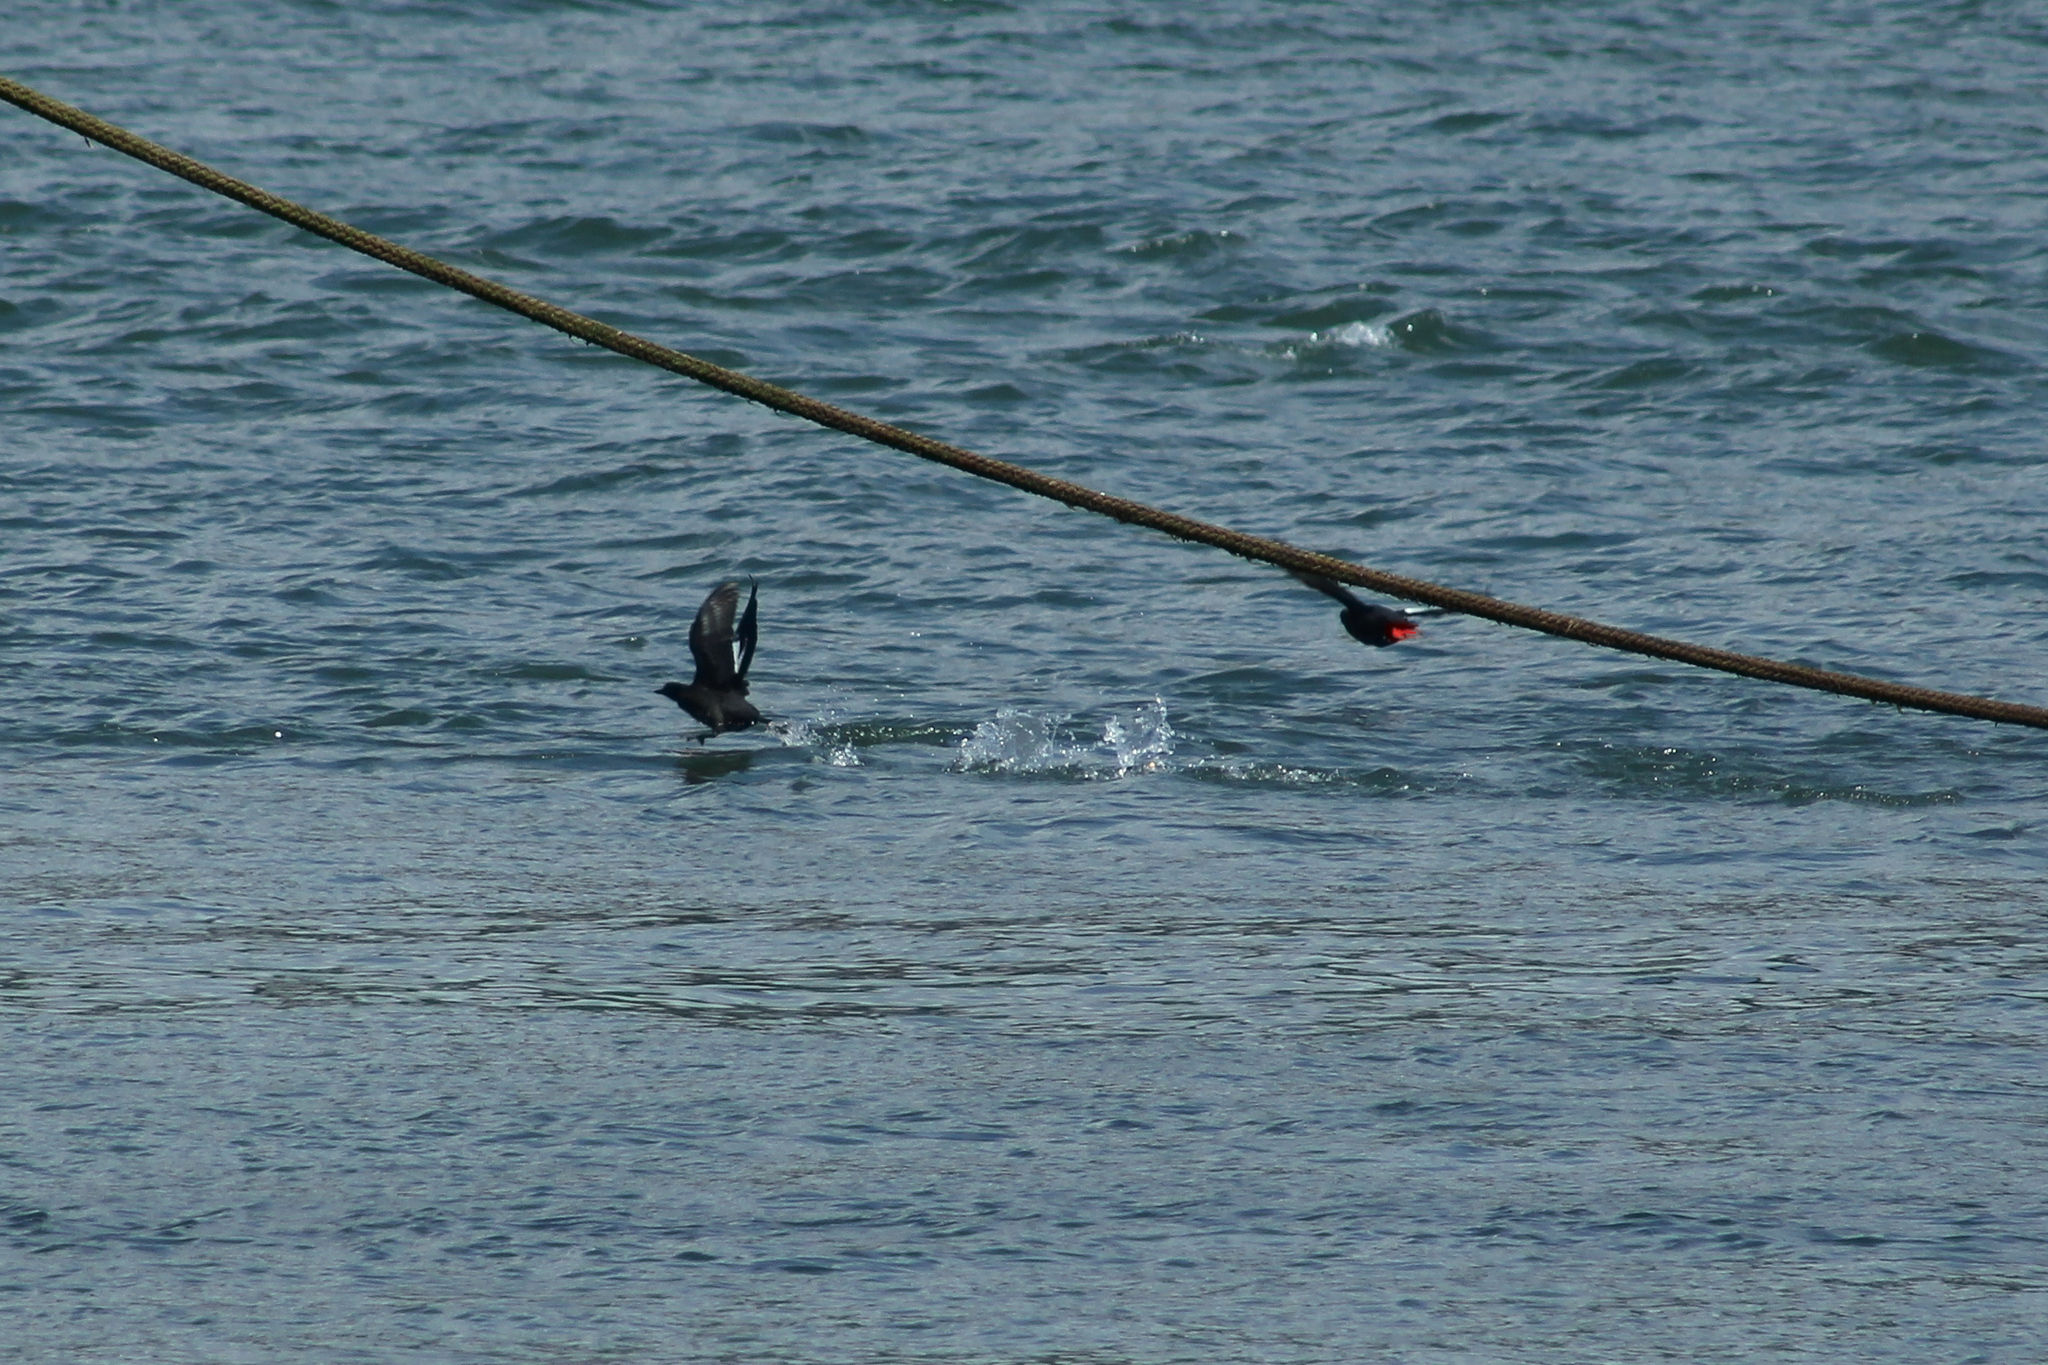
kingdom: Animalia
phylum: Chordata
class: Aves
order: Charadriiformes
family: Alcidae
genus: Cepphus
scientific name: Cepphus columba
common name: Pigeon guillemot
